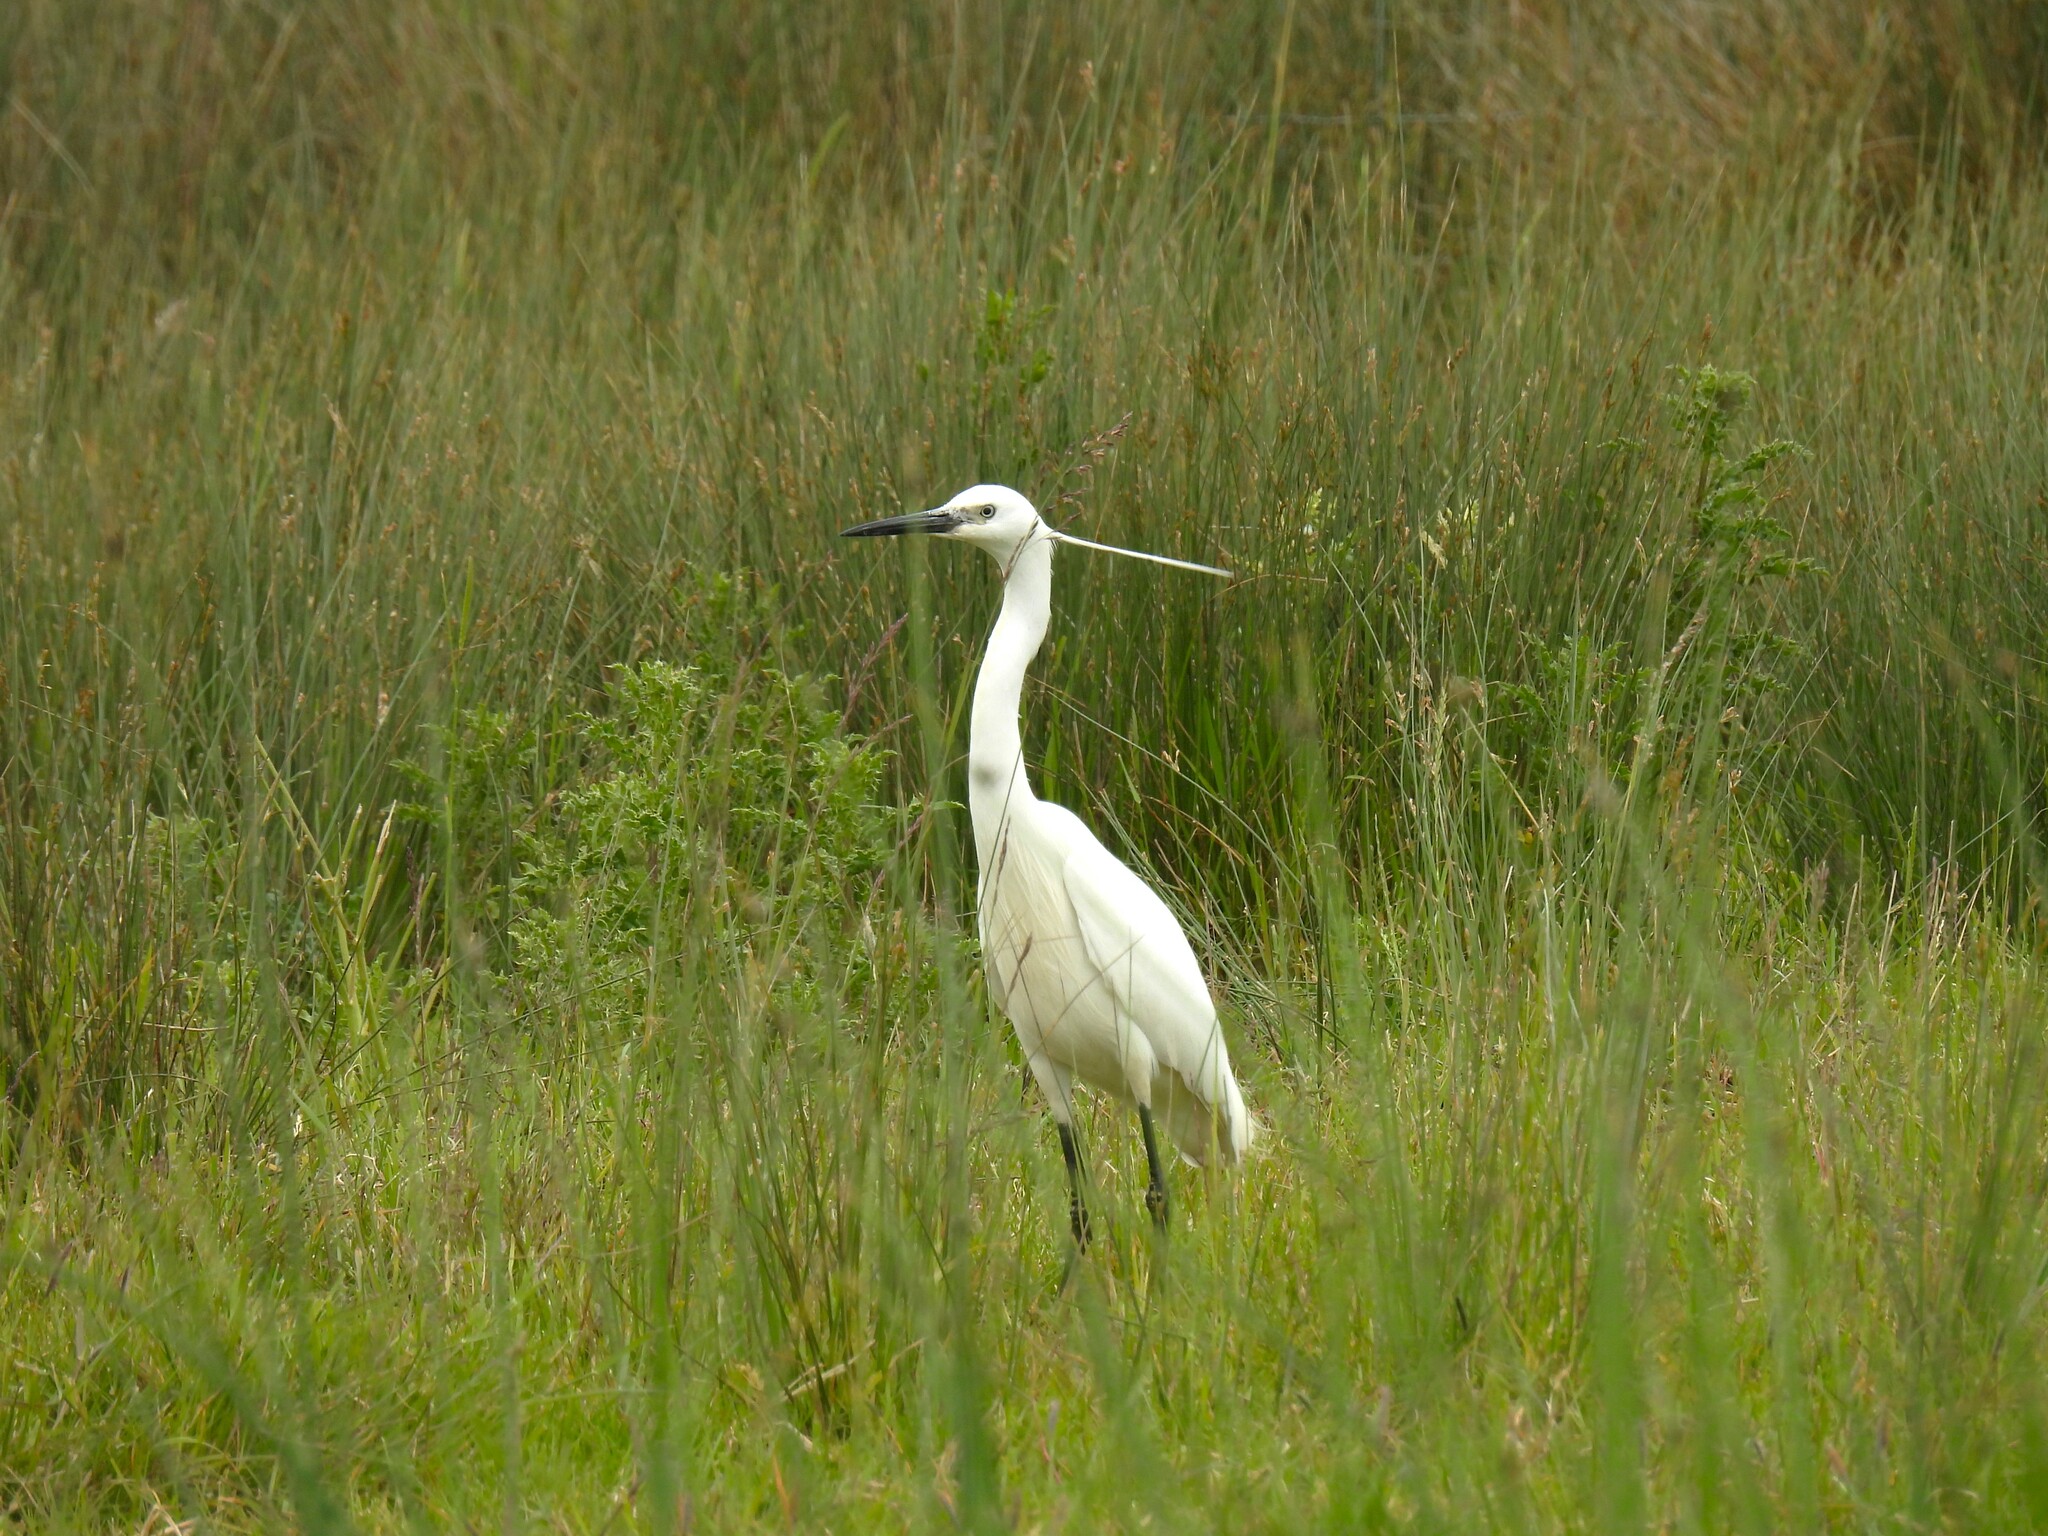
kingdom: Animalia
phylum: Chordata
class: Aves
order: Pelecaniformes
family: Ardeidae
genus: Egretta
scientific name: Egretta garzetta
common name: Little egret
